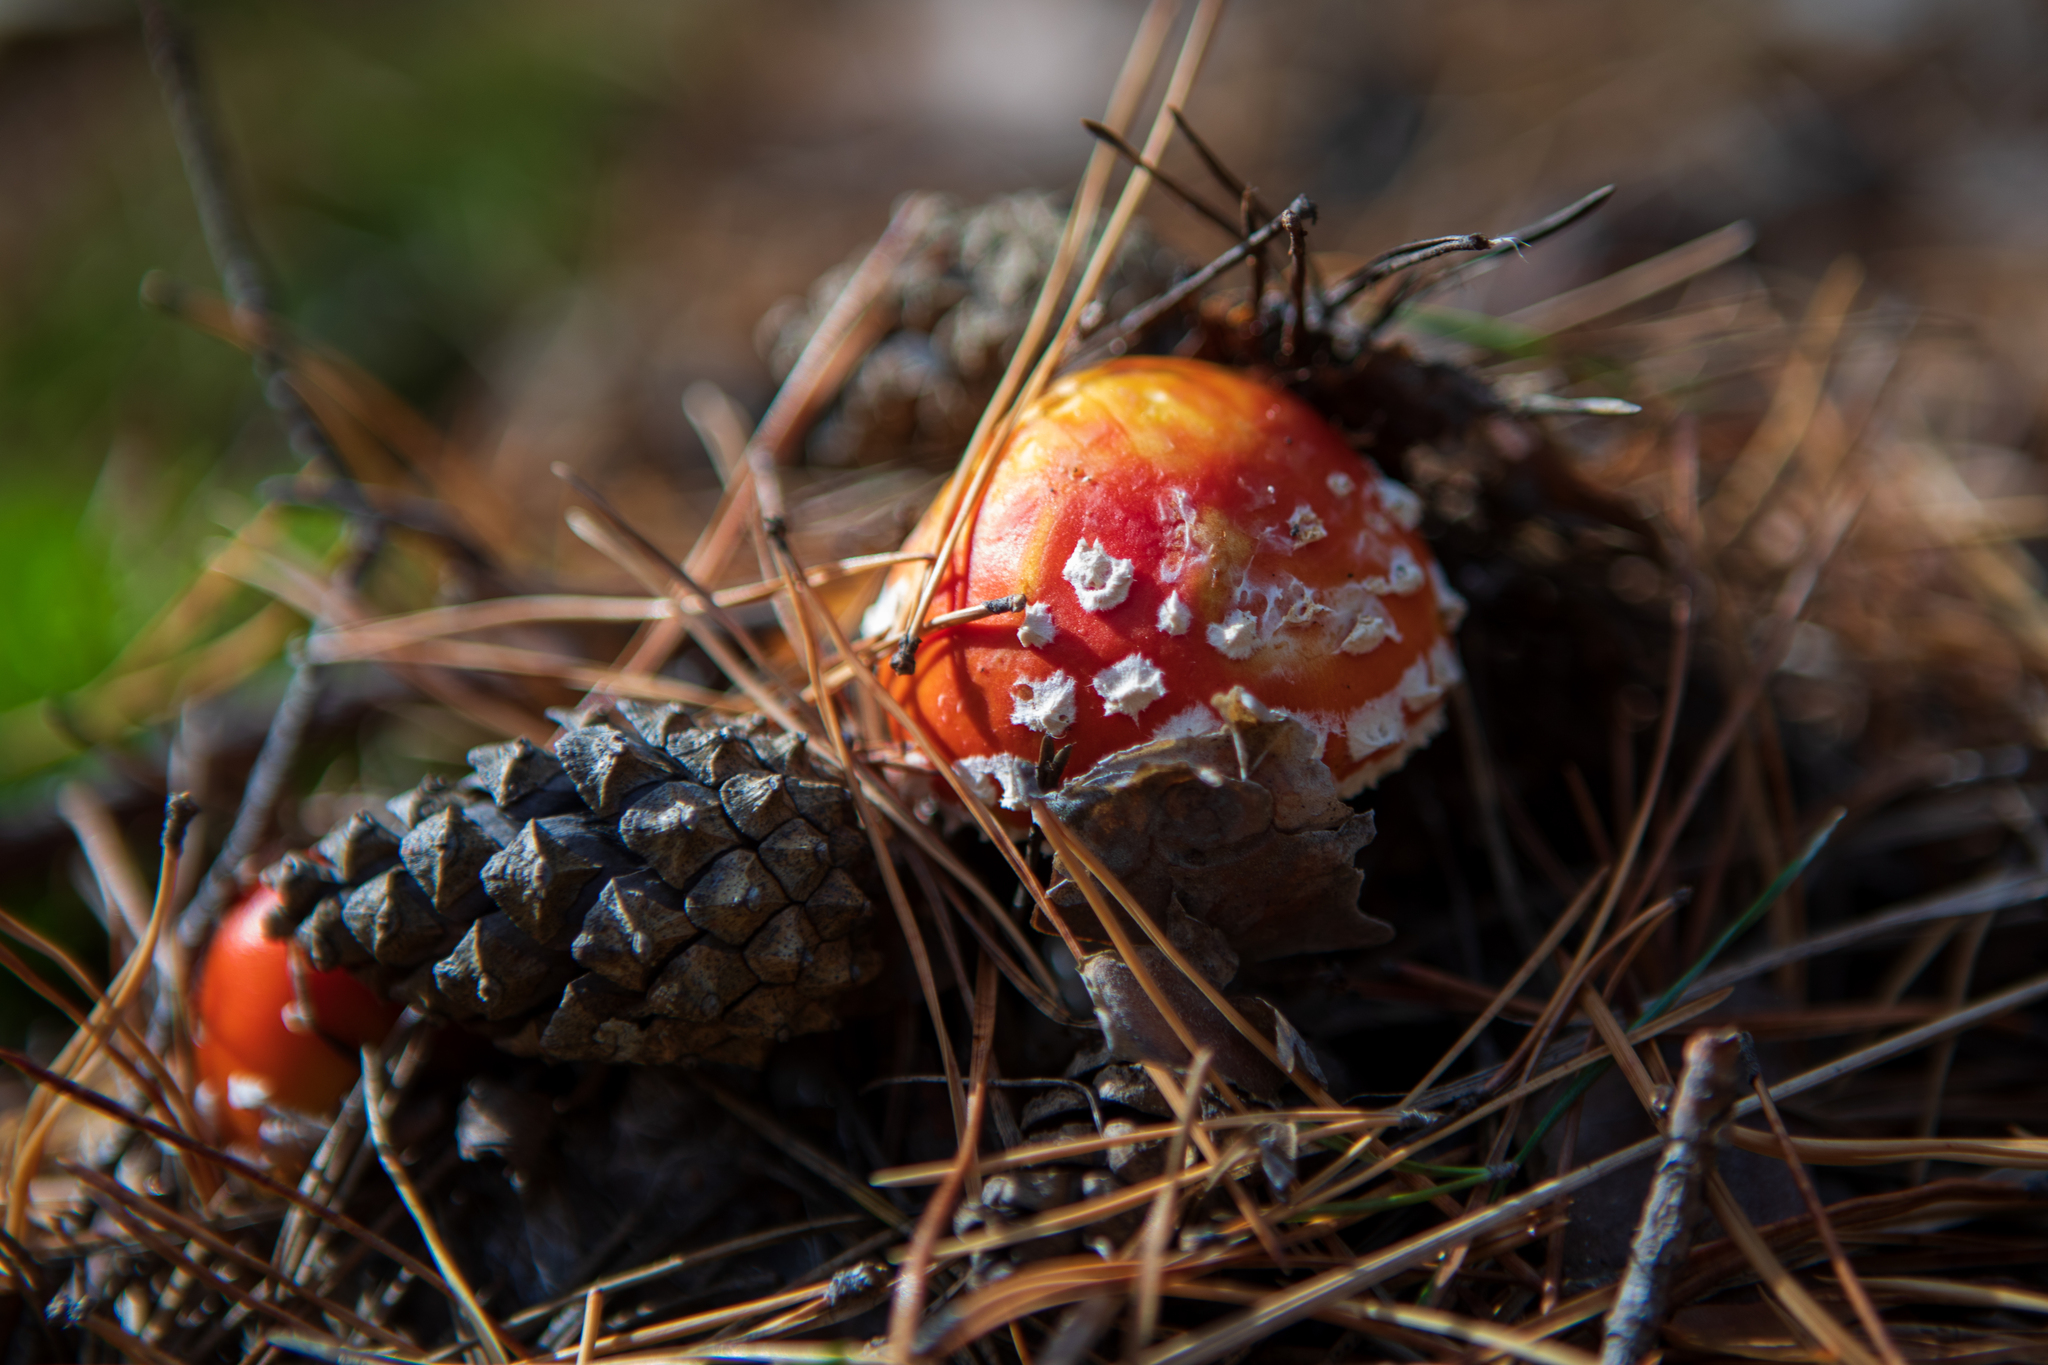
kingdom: Fungi
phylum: Basidiomycota
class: Agaricomycetes
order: Agaricales
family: Amanitaceae
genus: Amanita
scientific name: Amanita muscaria
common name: Fly agaric
